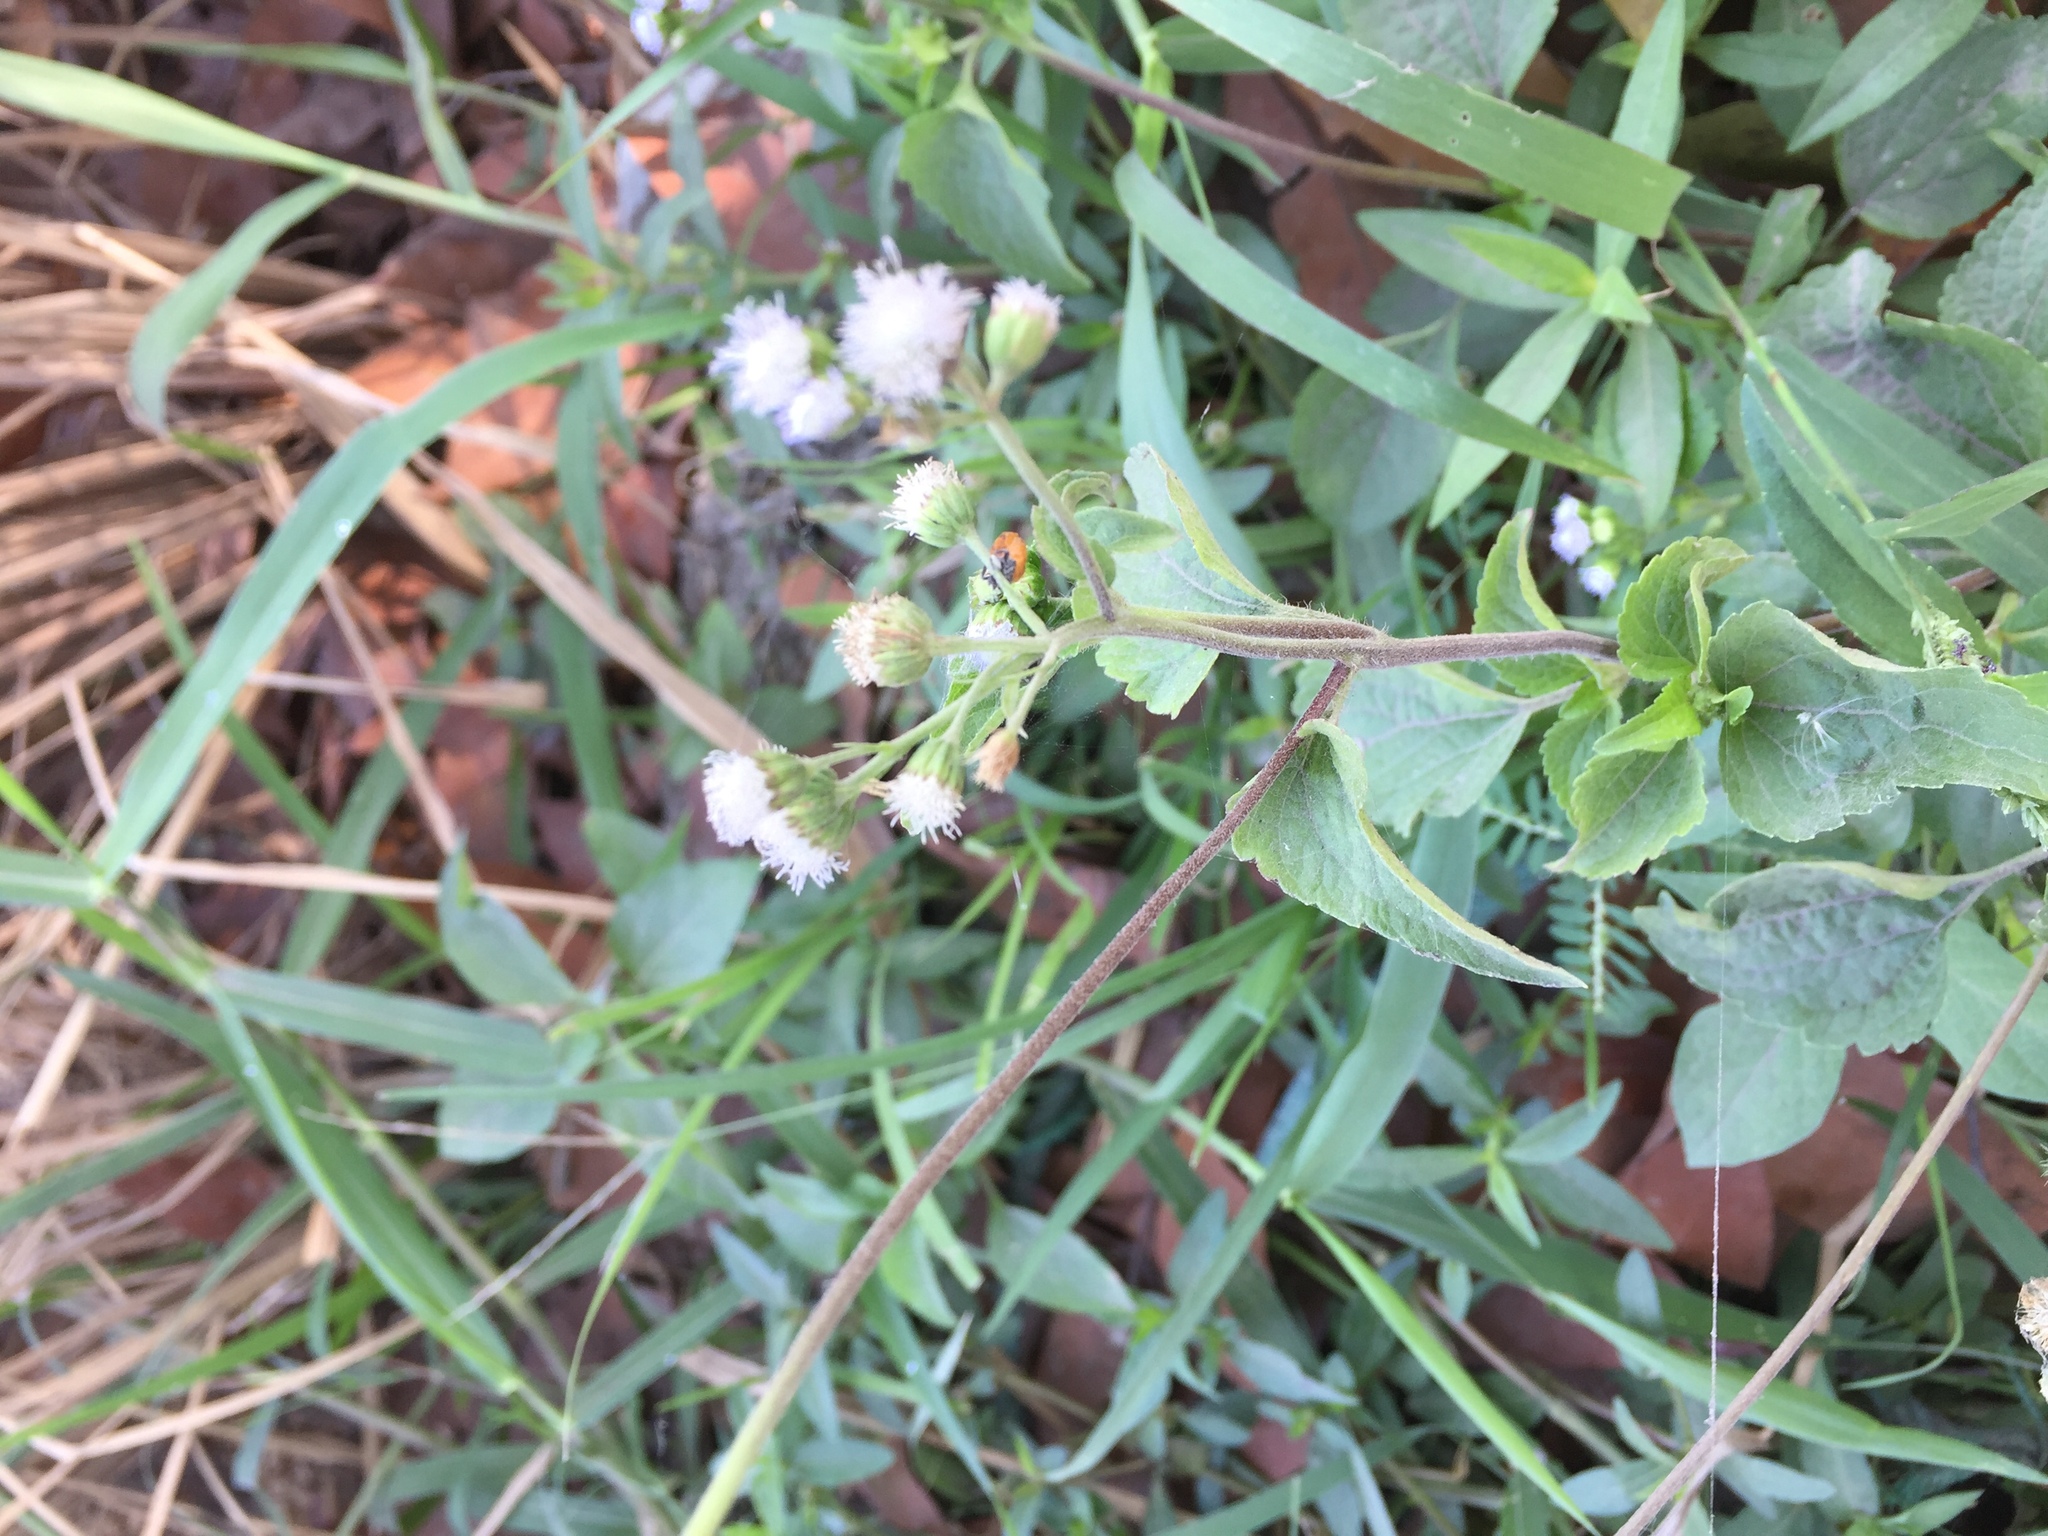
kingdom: Plantae
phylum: Tracheophyta
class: Magnoliopsida
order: Asterales
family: Asteraceae
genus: Ageratum
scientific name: Ageratum conyzoides
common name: Tropical whiteweed
